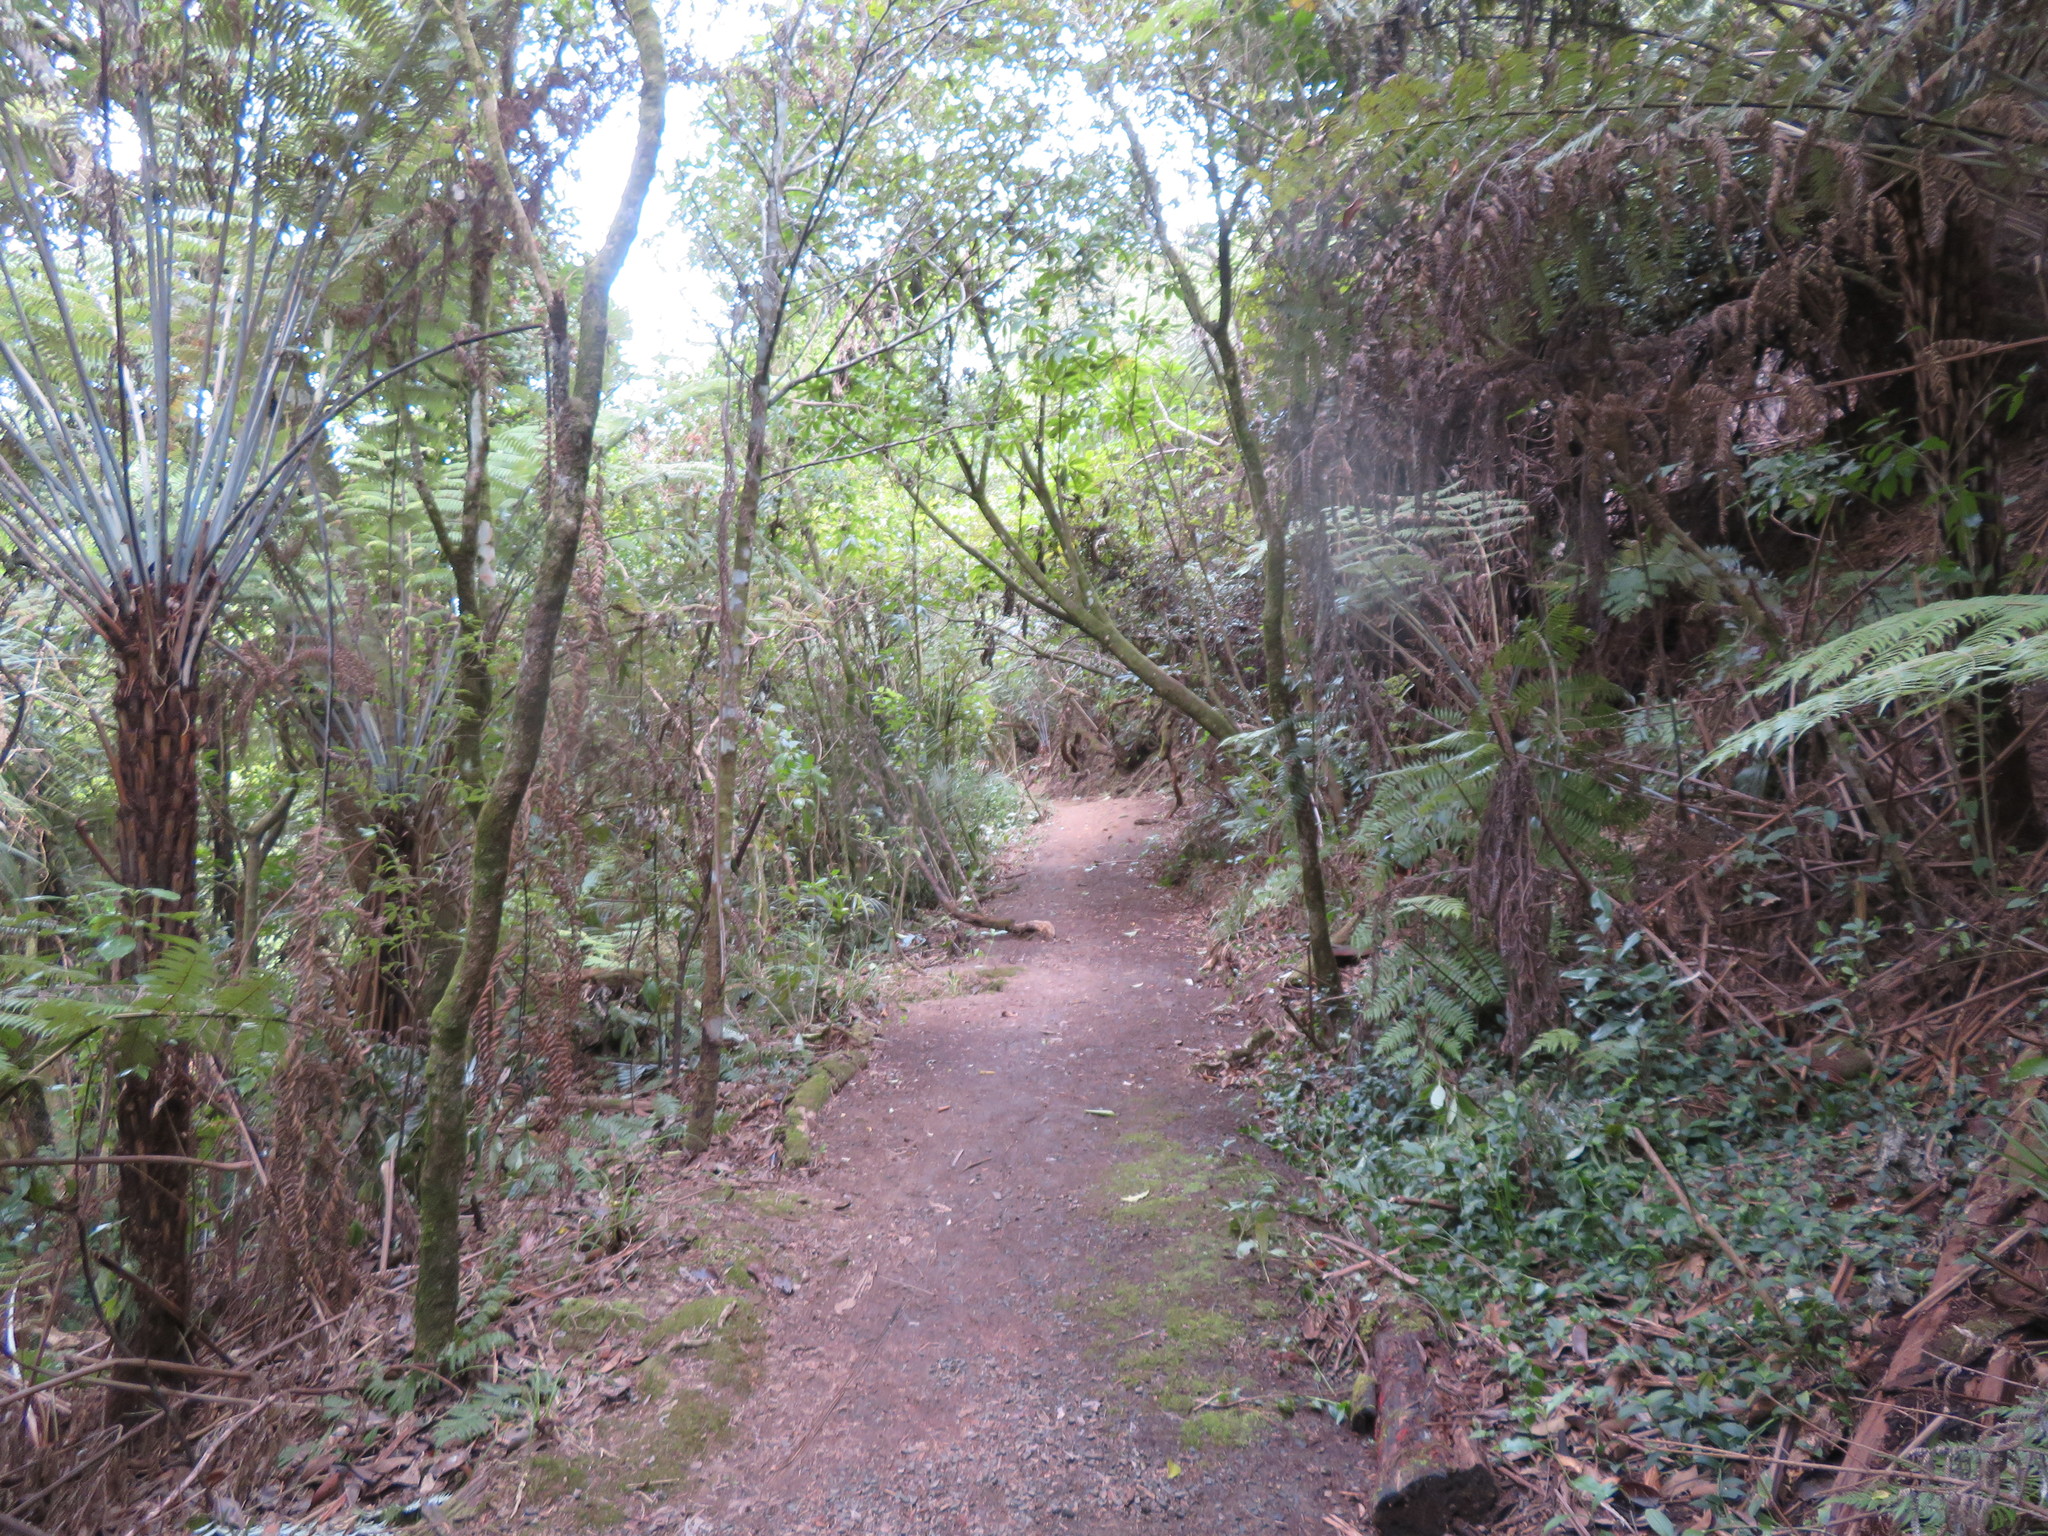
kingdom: Plantae
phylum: Tracheophyta
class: Liliopsida
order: Commelinales
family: Commelinaceae
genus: Tradescantia
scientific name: Tradescantia fluminensis
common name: Wandering-jew
